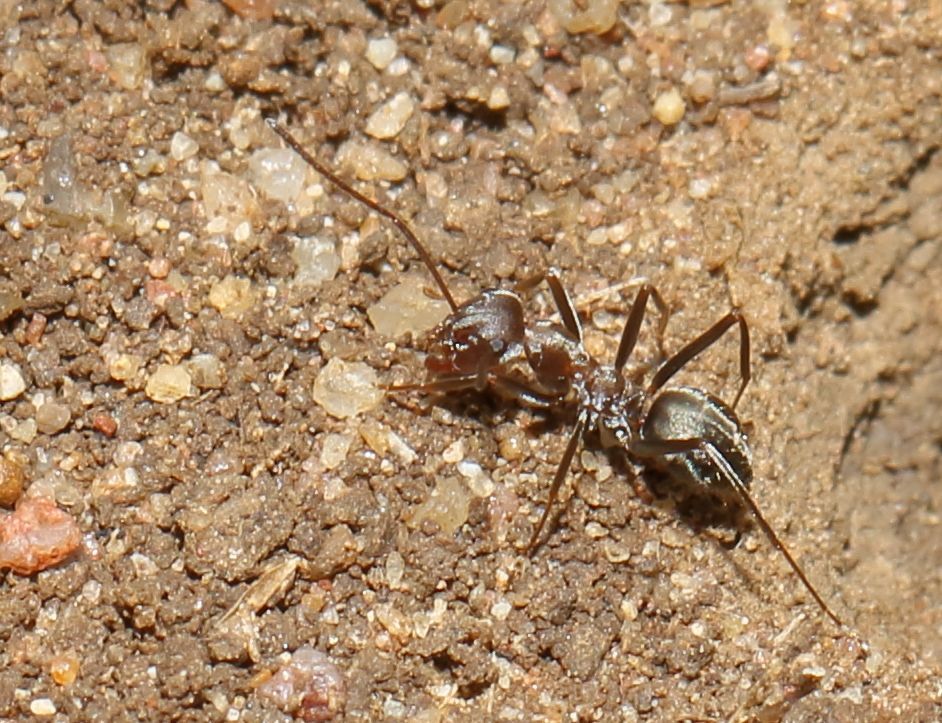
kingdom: Animalia
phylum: Arthropoda
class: Insecta
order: Hymenoptera
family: Formicidae
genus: Anoplolepis
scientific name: Anoplolepis custodiens
